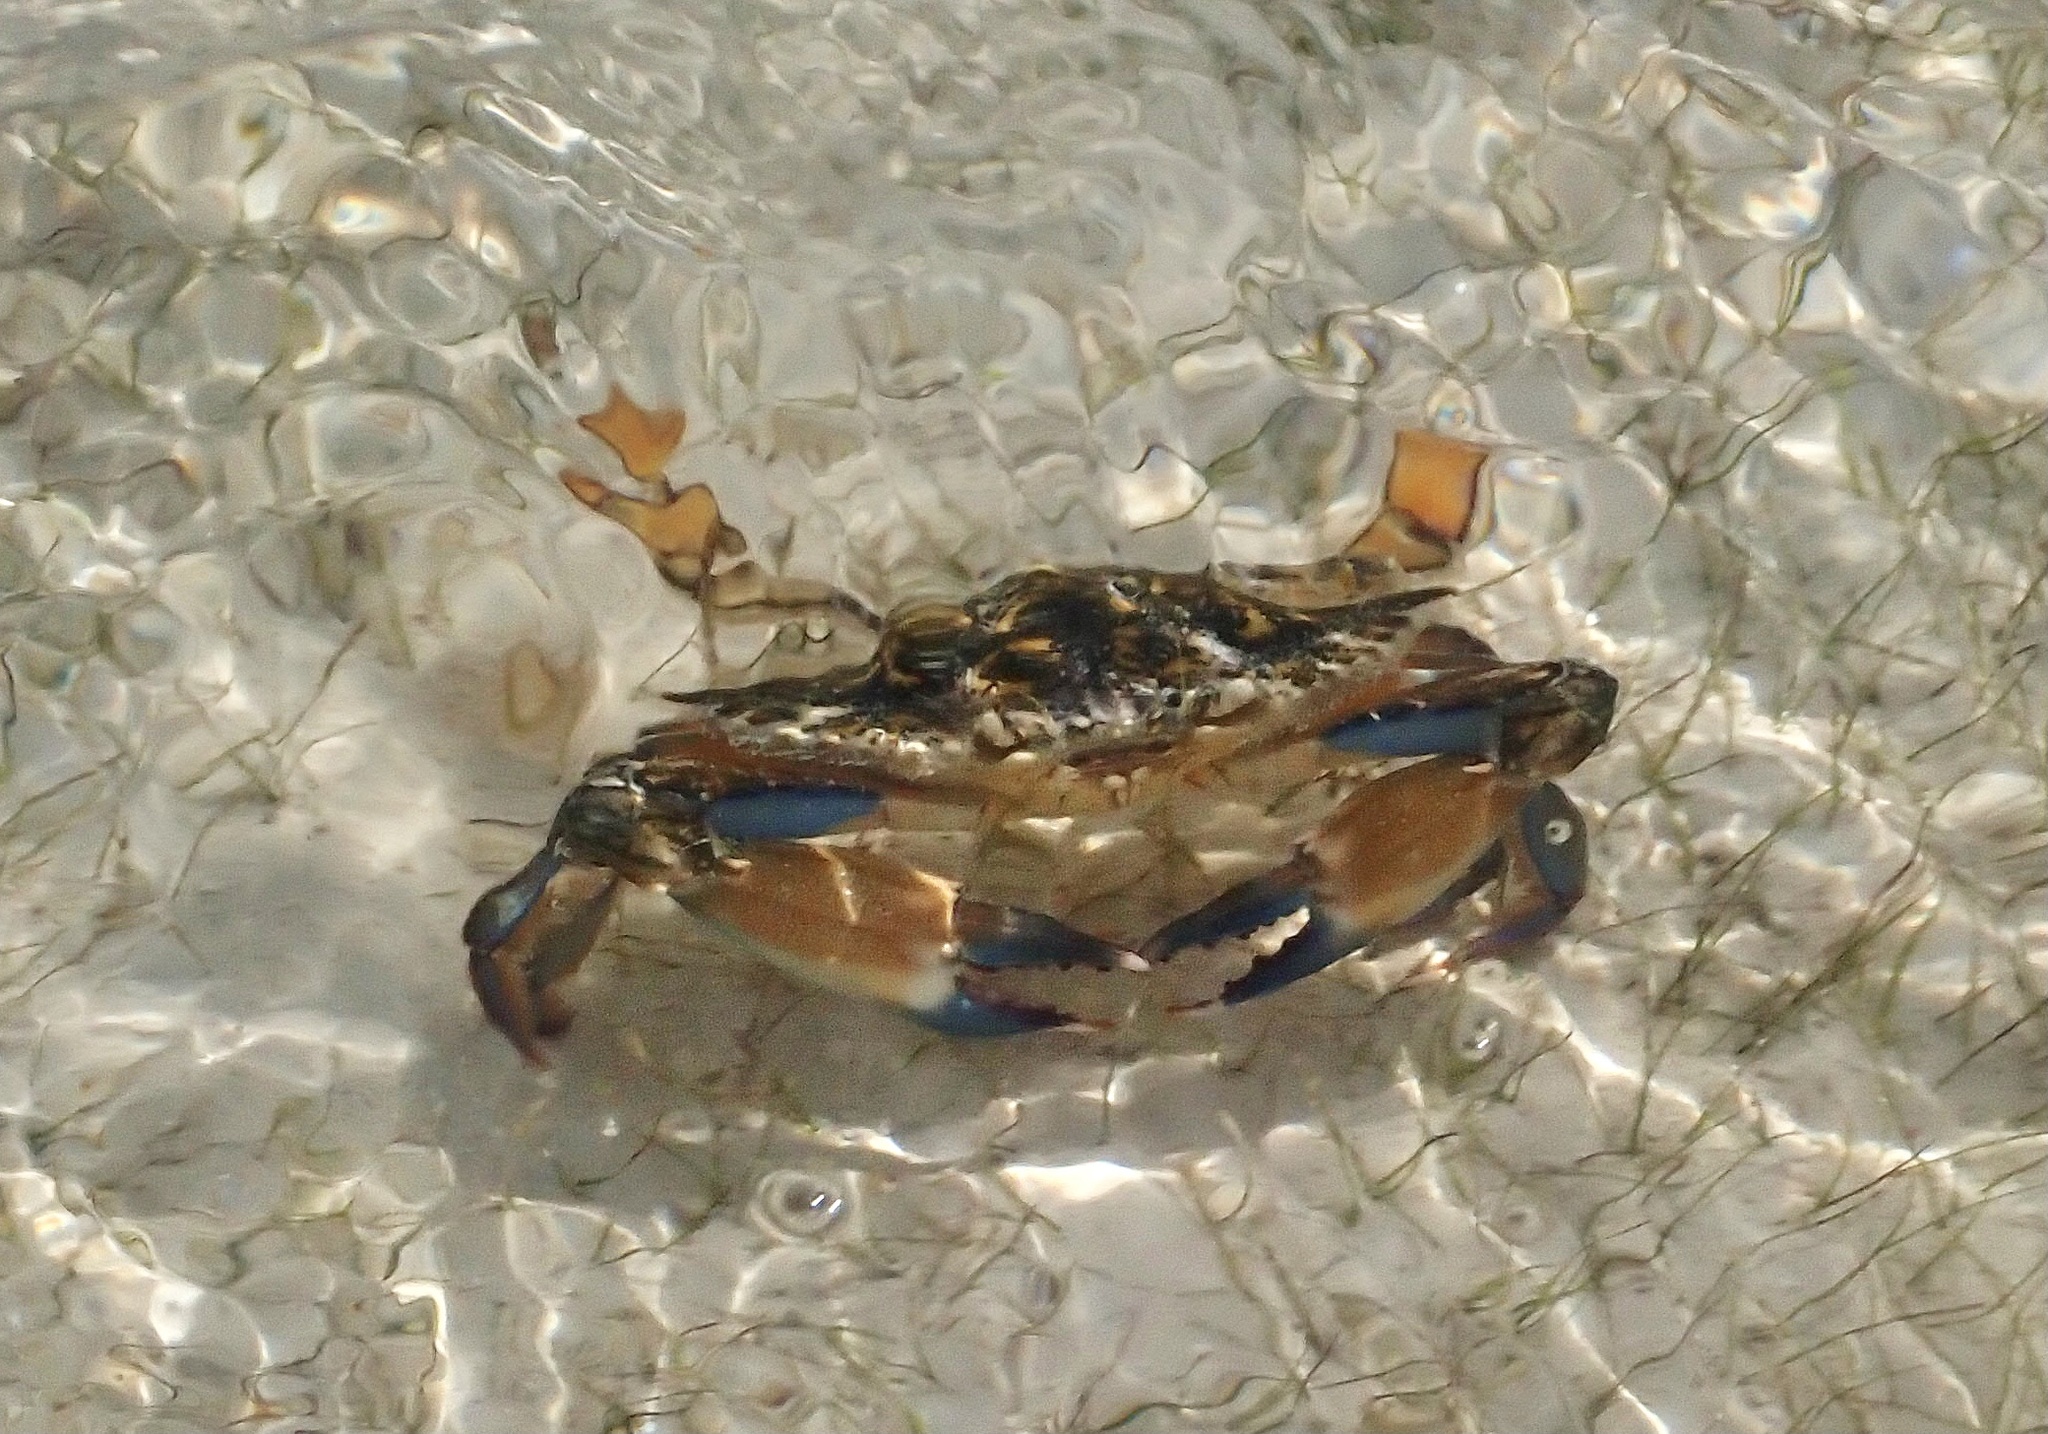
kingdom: Animalia
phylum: Arthropoda
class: Malacostraca
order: Decapoda
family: Portunidae
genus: Callinectes
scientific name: Callinectes marginatus
